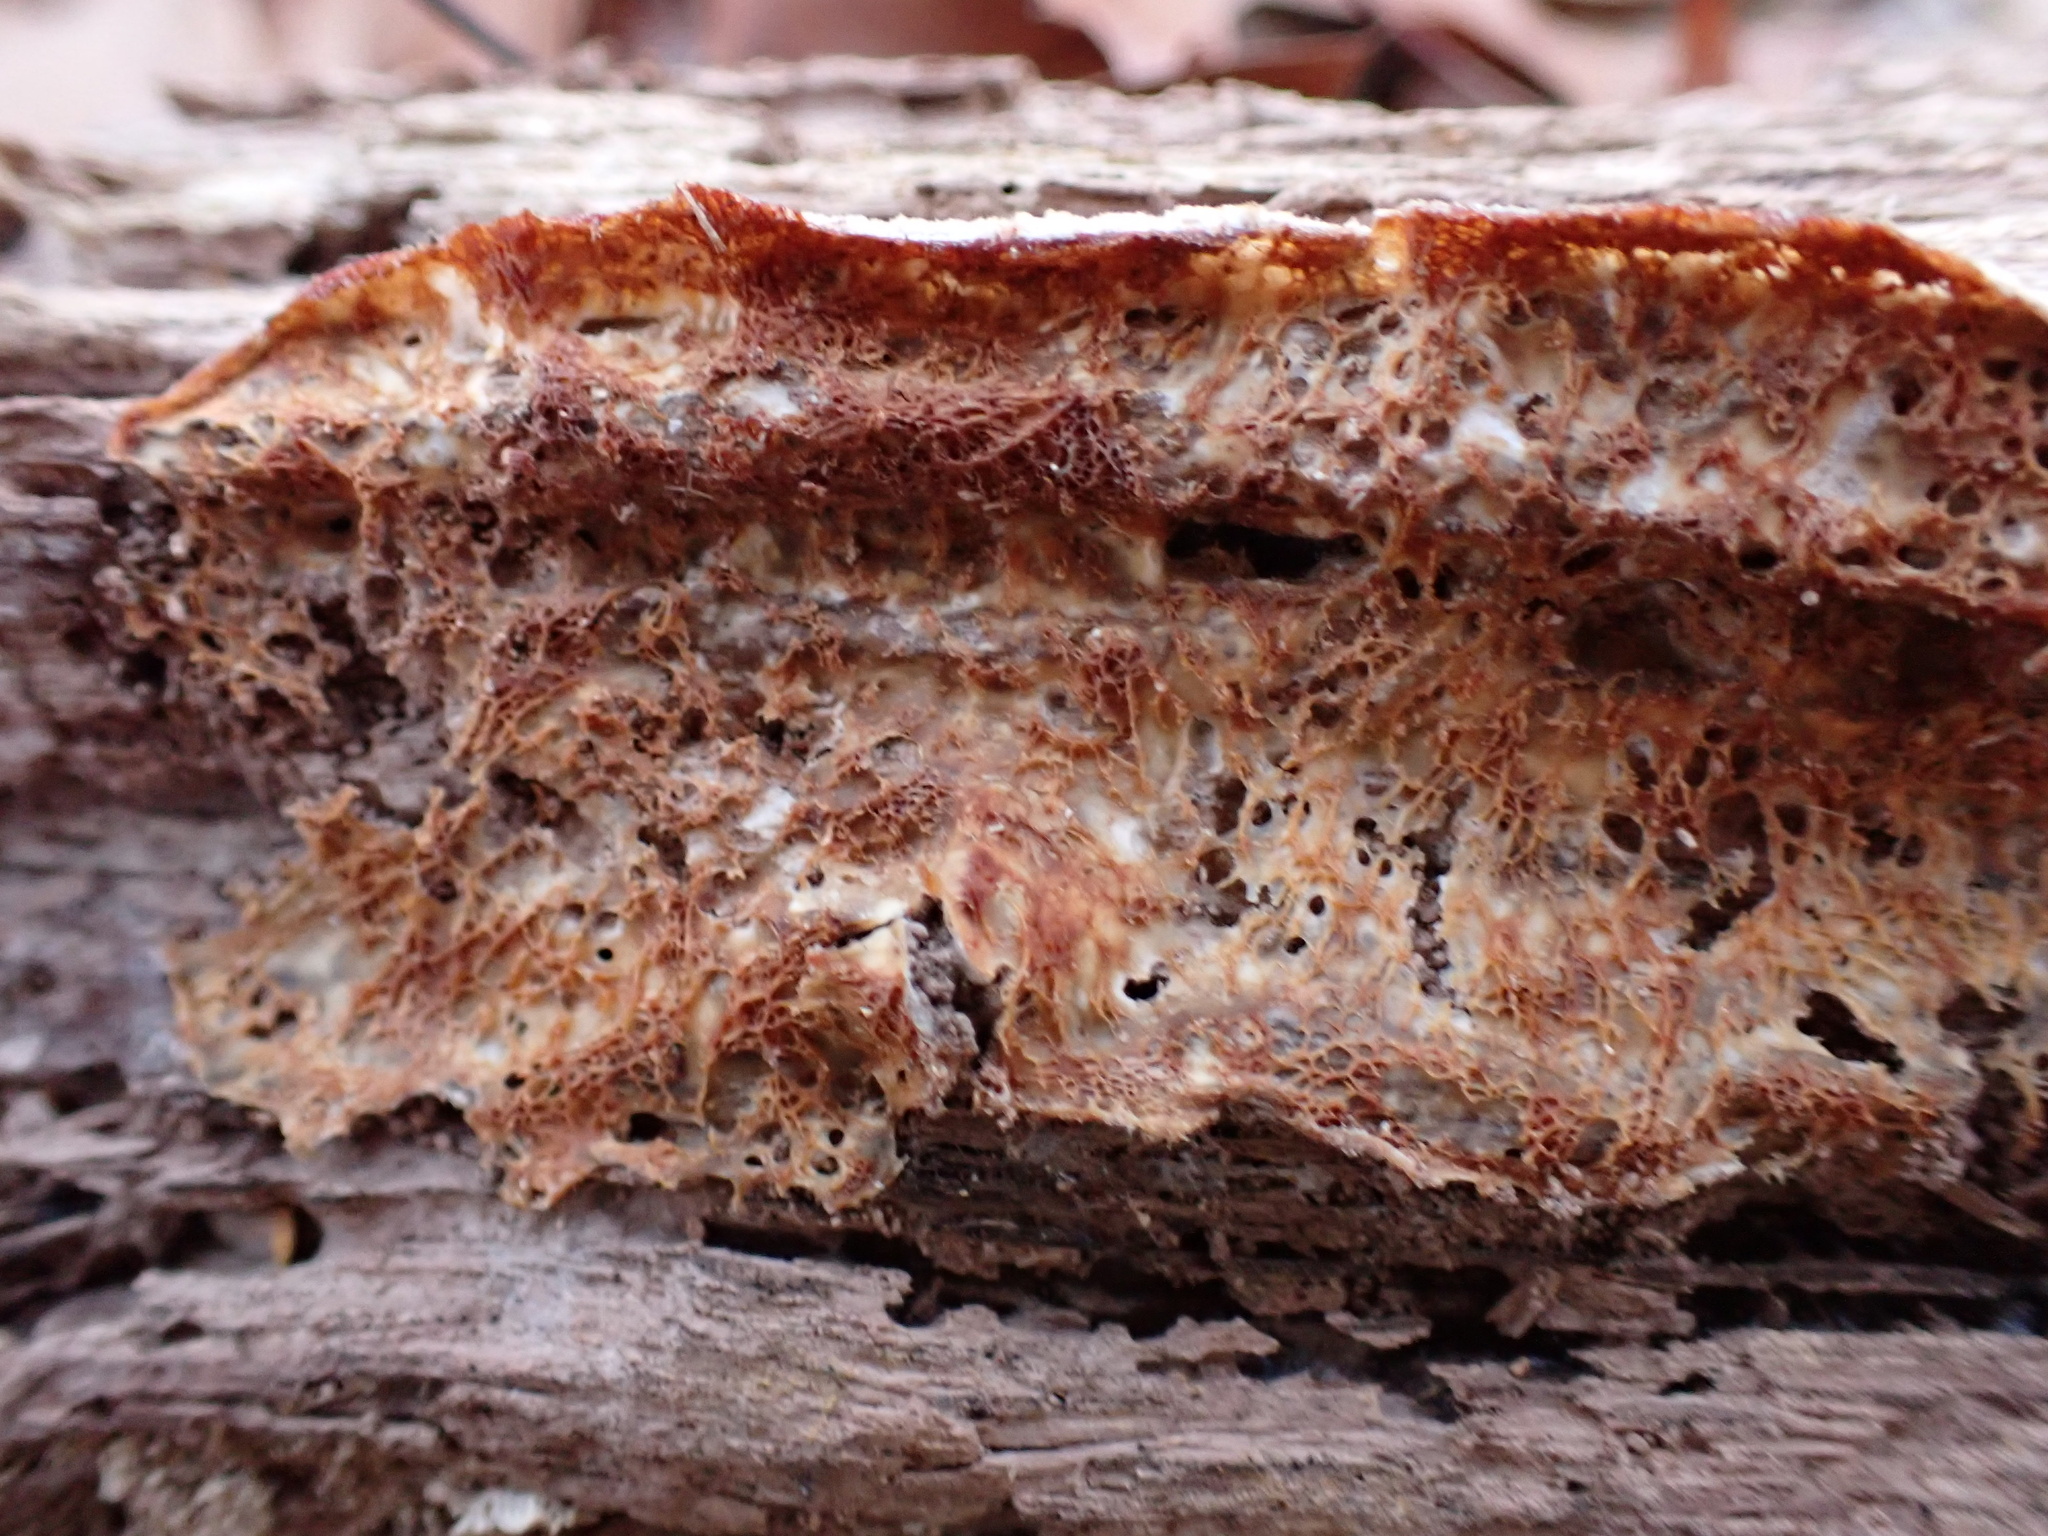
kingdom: Fungi
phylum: Basidiomycota
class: Agaricomycetes
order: Polyporales
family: Meruliaceae
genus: Phlebia
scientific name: Phlebia tremellosa
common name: Jelly rot
